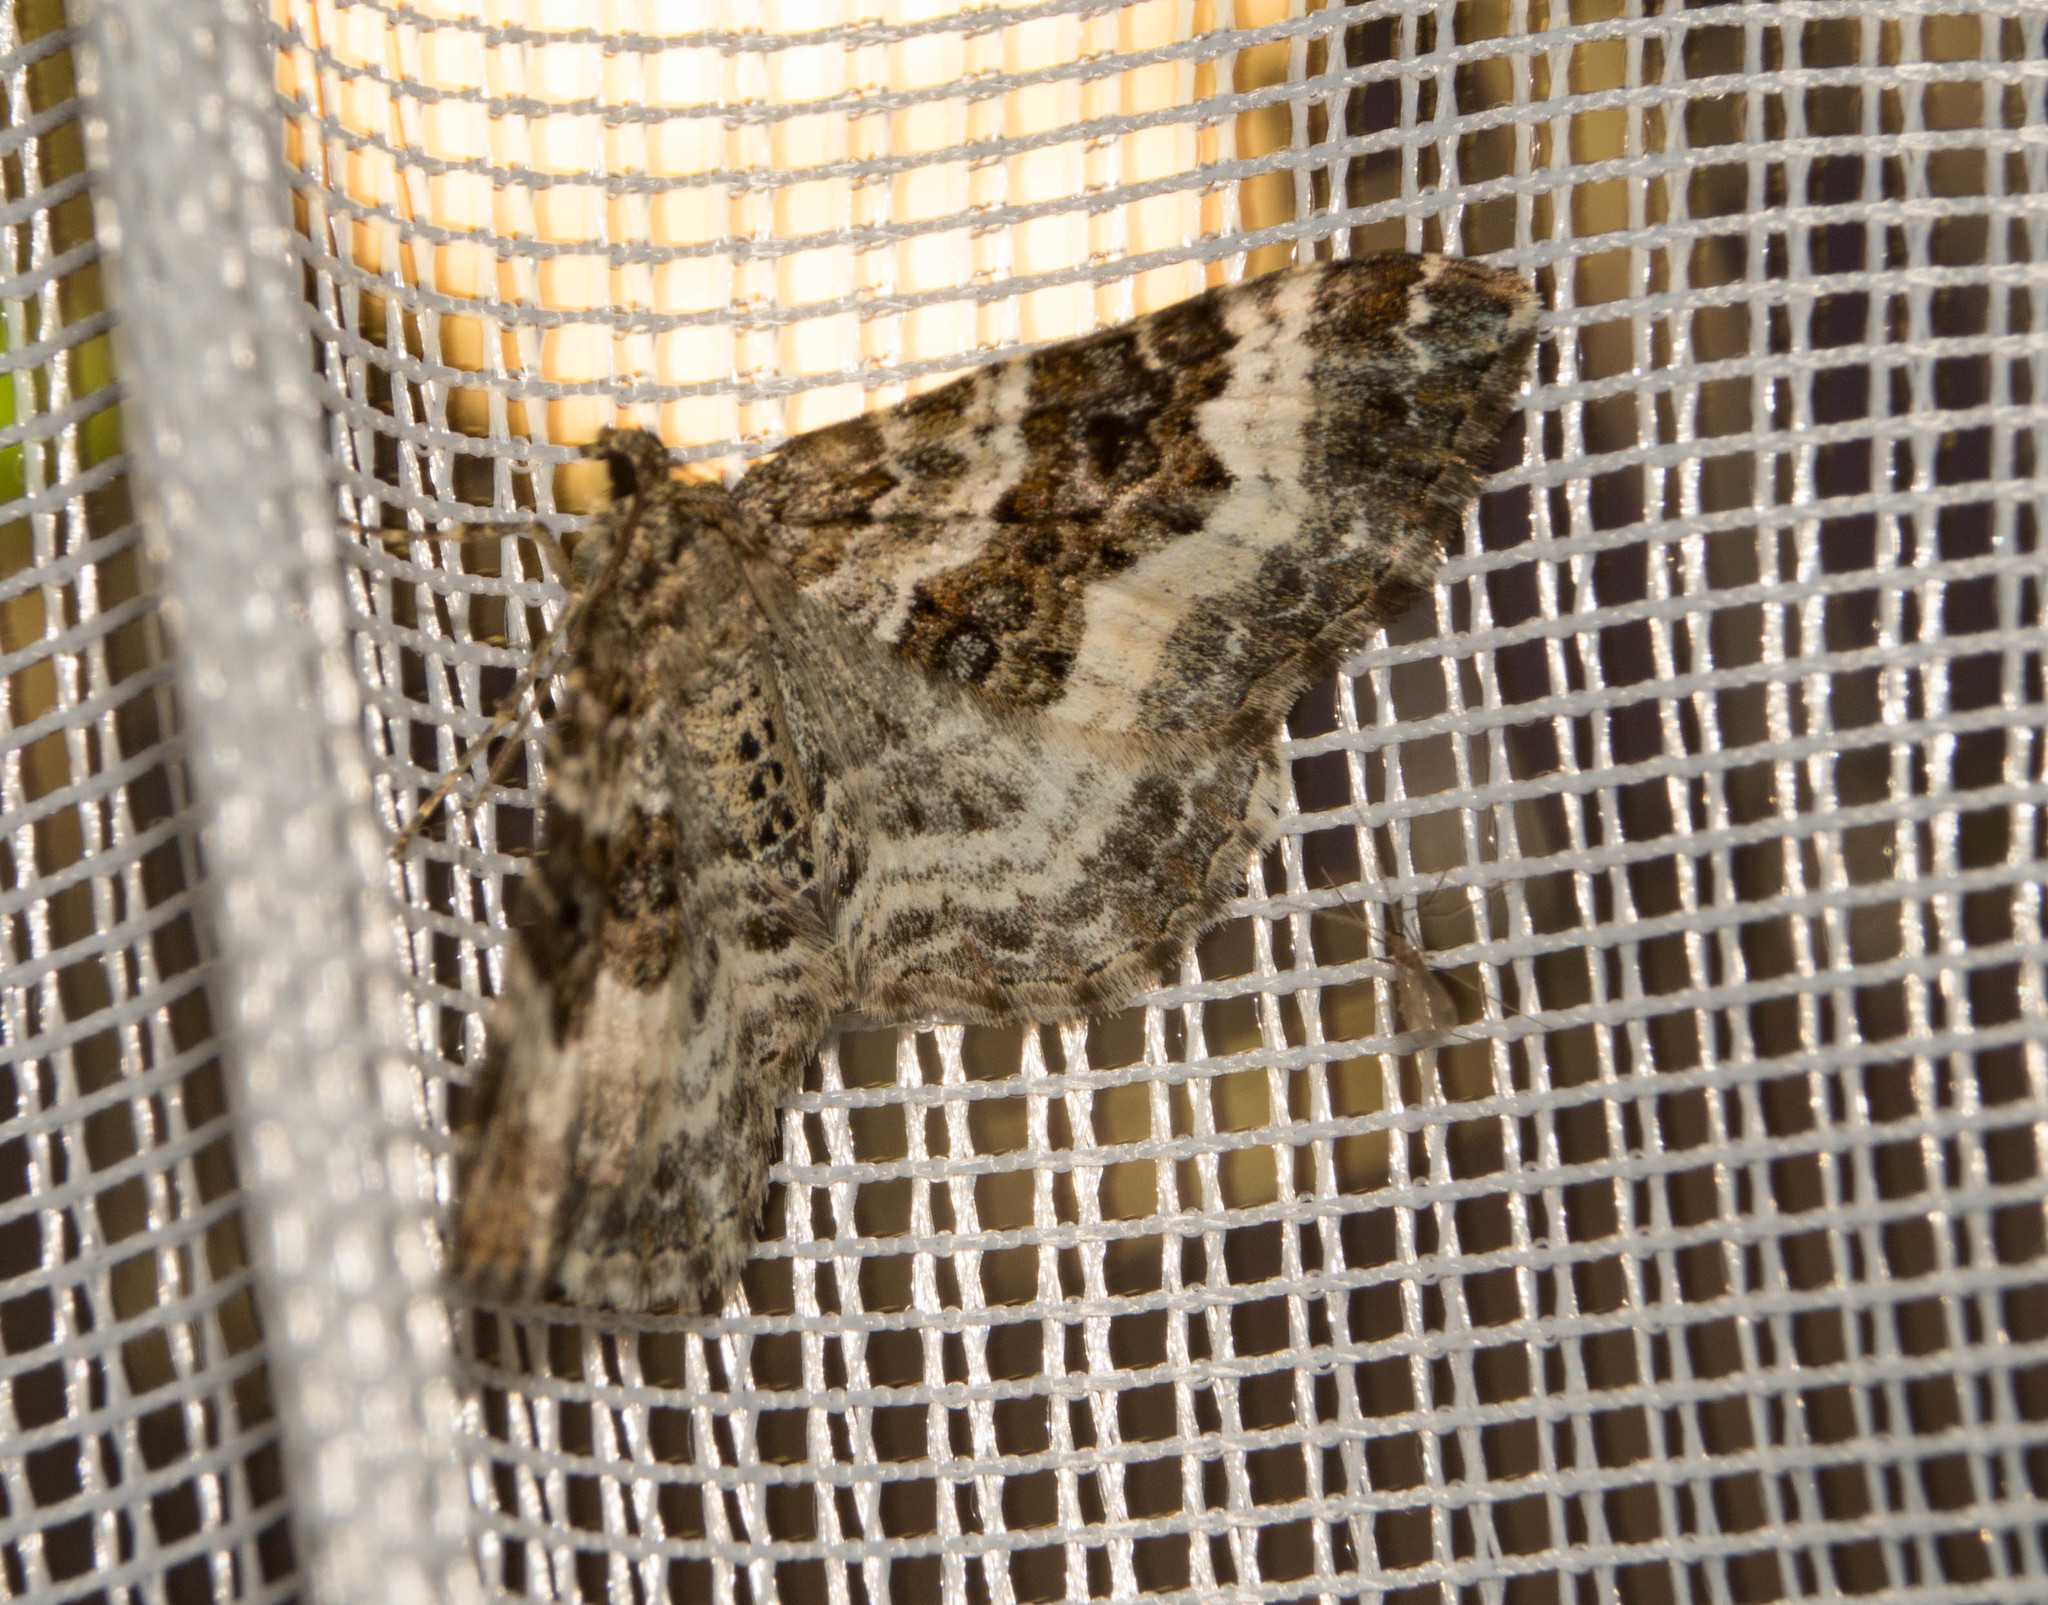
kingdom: Animalia
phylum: Arthropoda
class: Insecta
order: Lepidoptera
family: Geometridae
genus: Epirrhoe
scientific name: Epirrhoe alternata
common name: Common carpet
